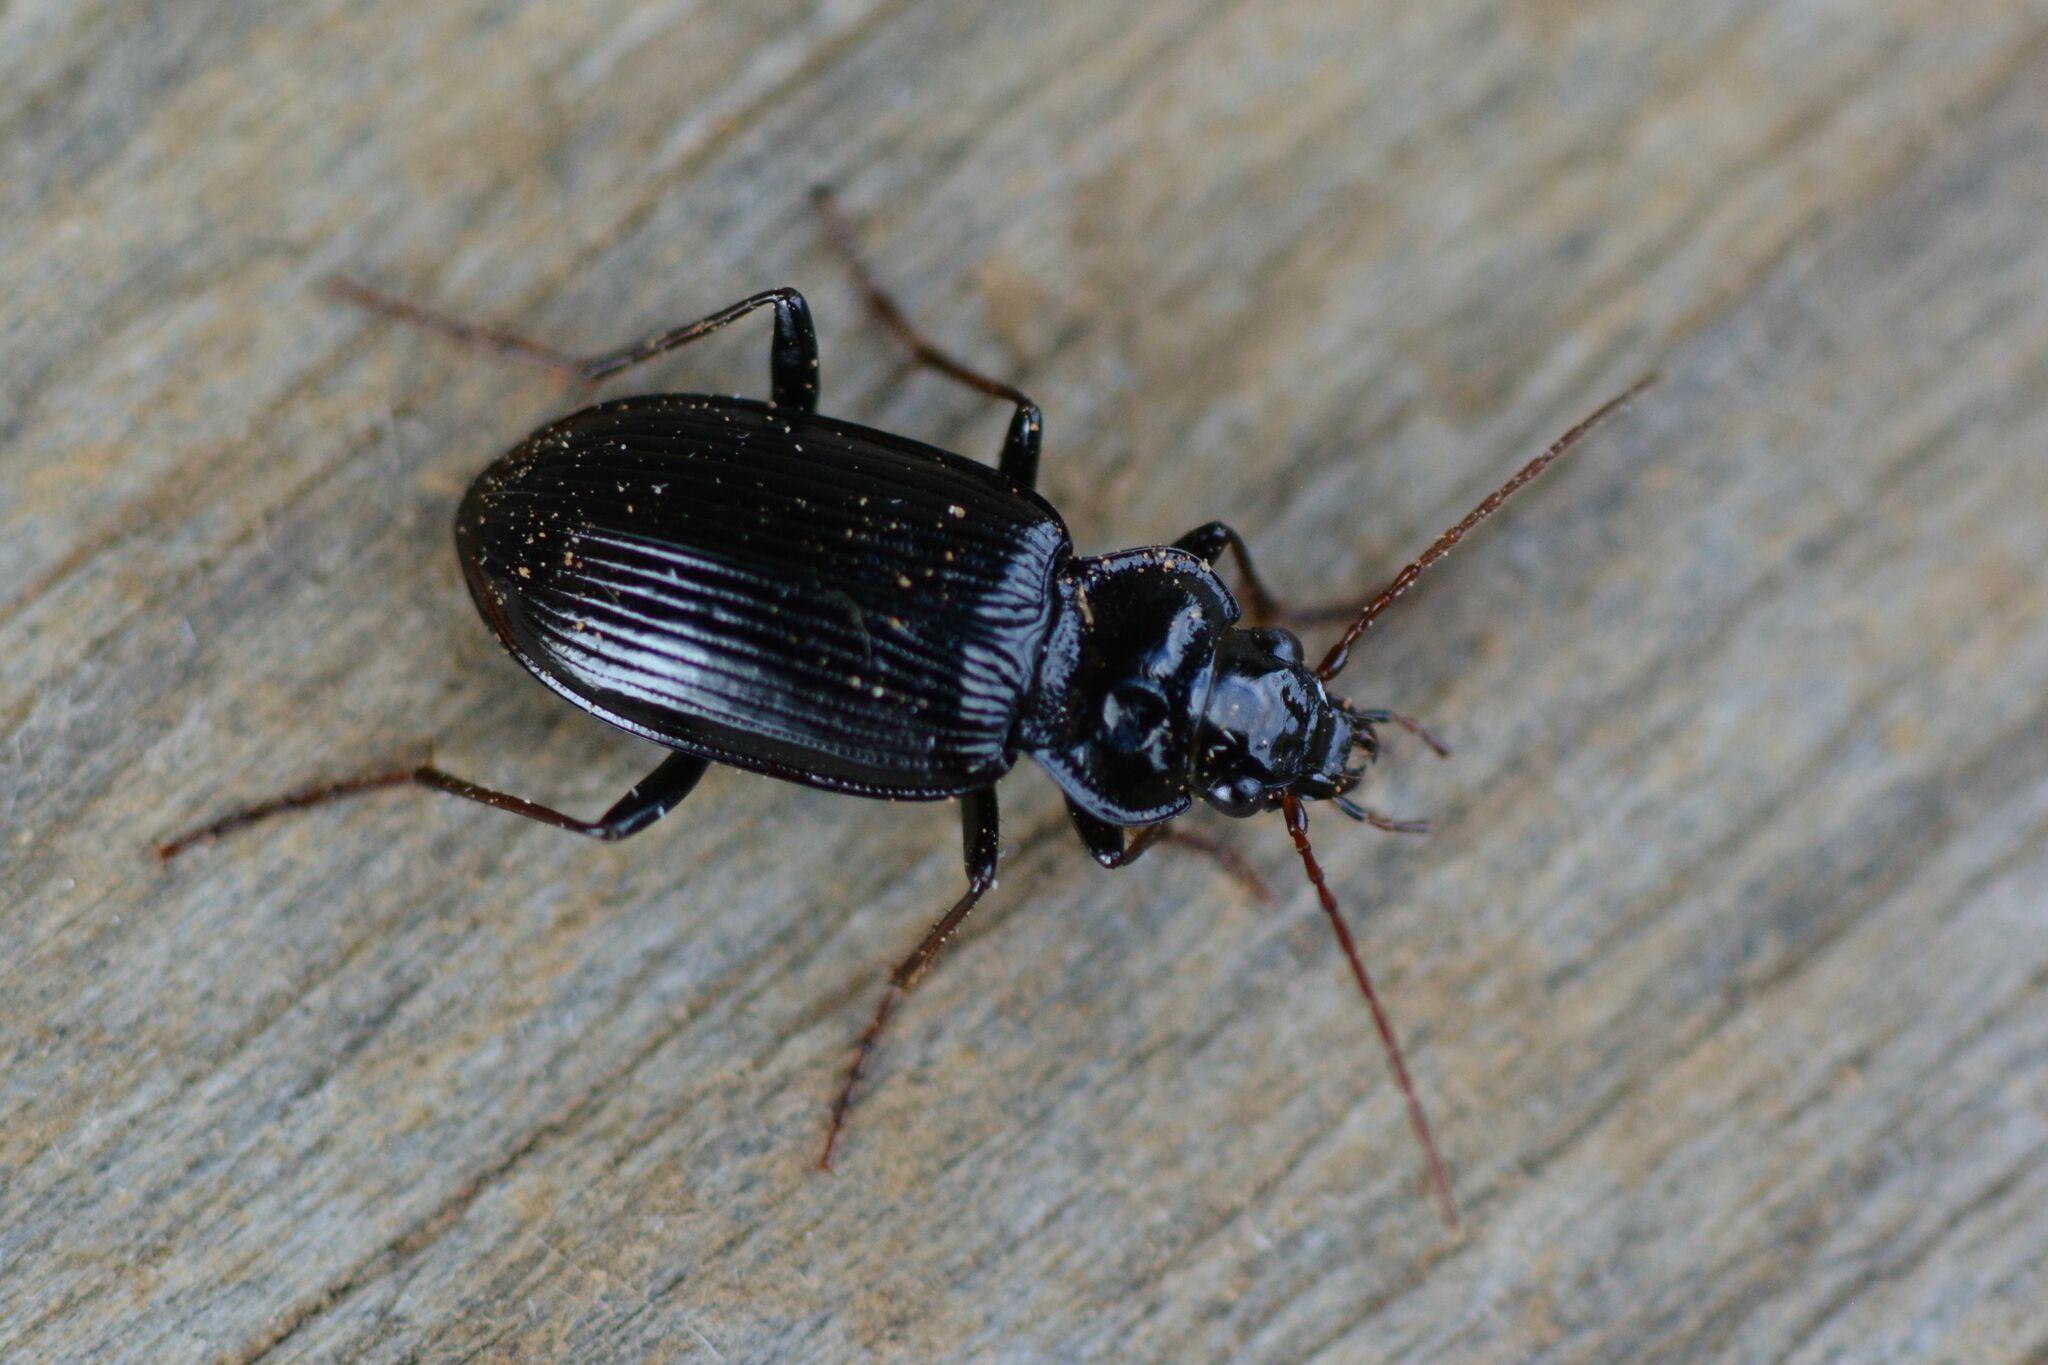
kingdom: Animalia
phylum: Arthropoda
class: Insecta
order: Coleoptera
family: Carabidae
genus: Nebria
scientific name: Nebria salina
